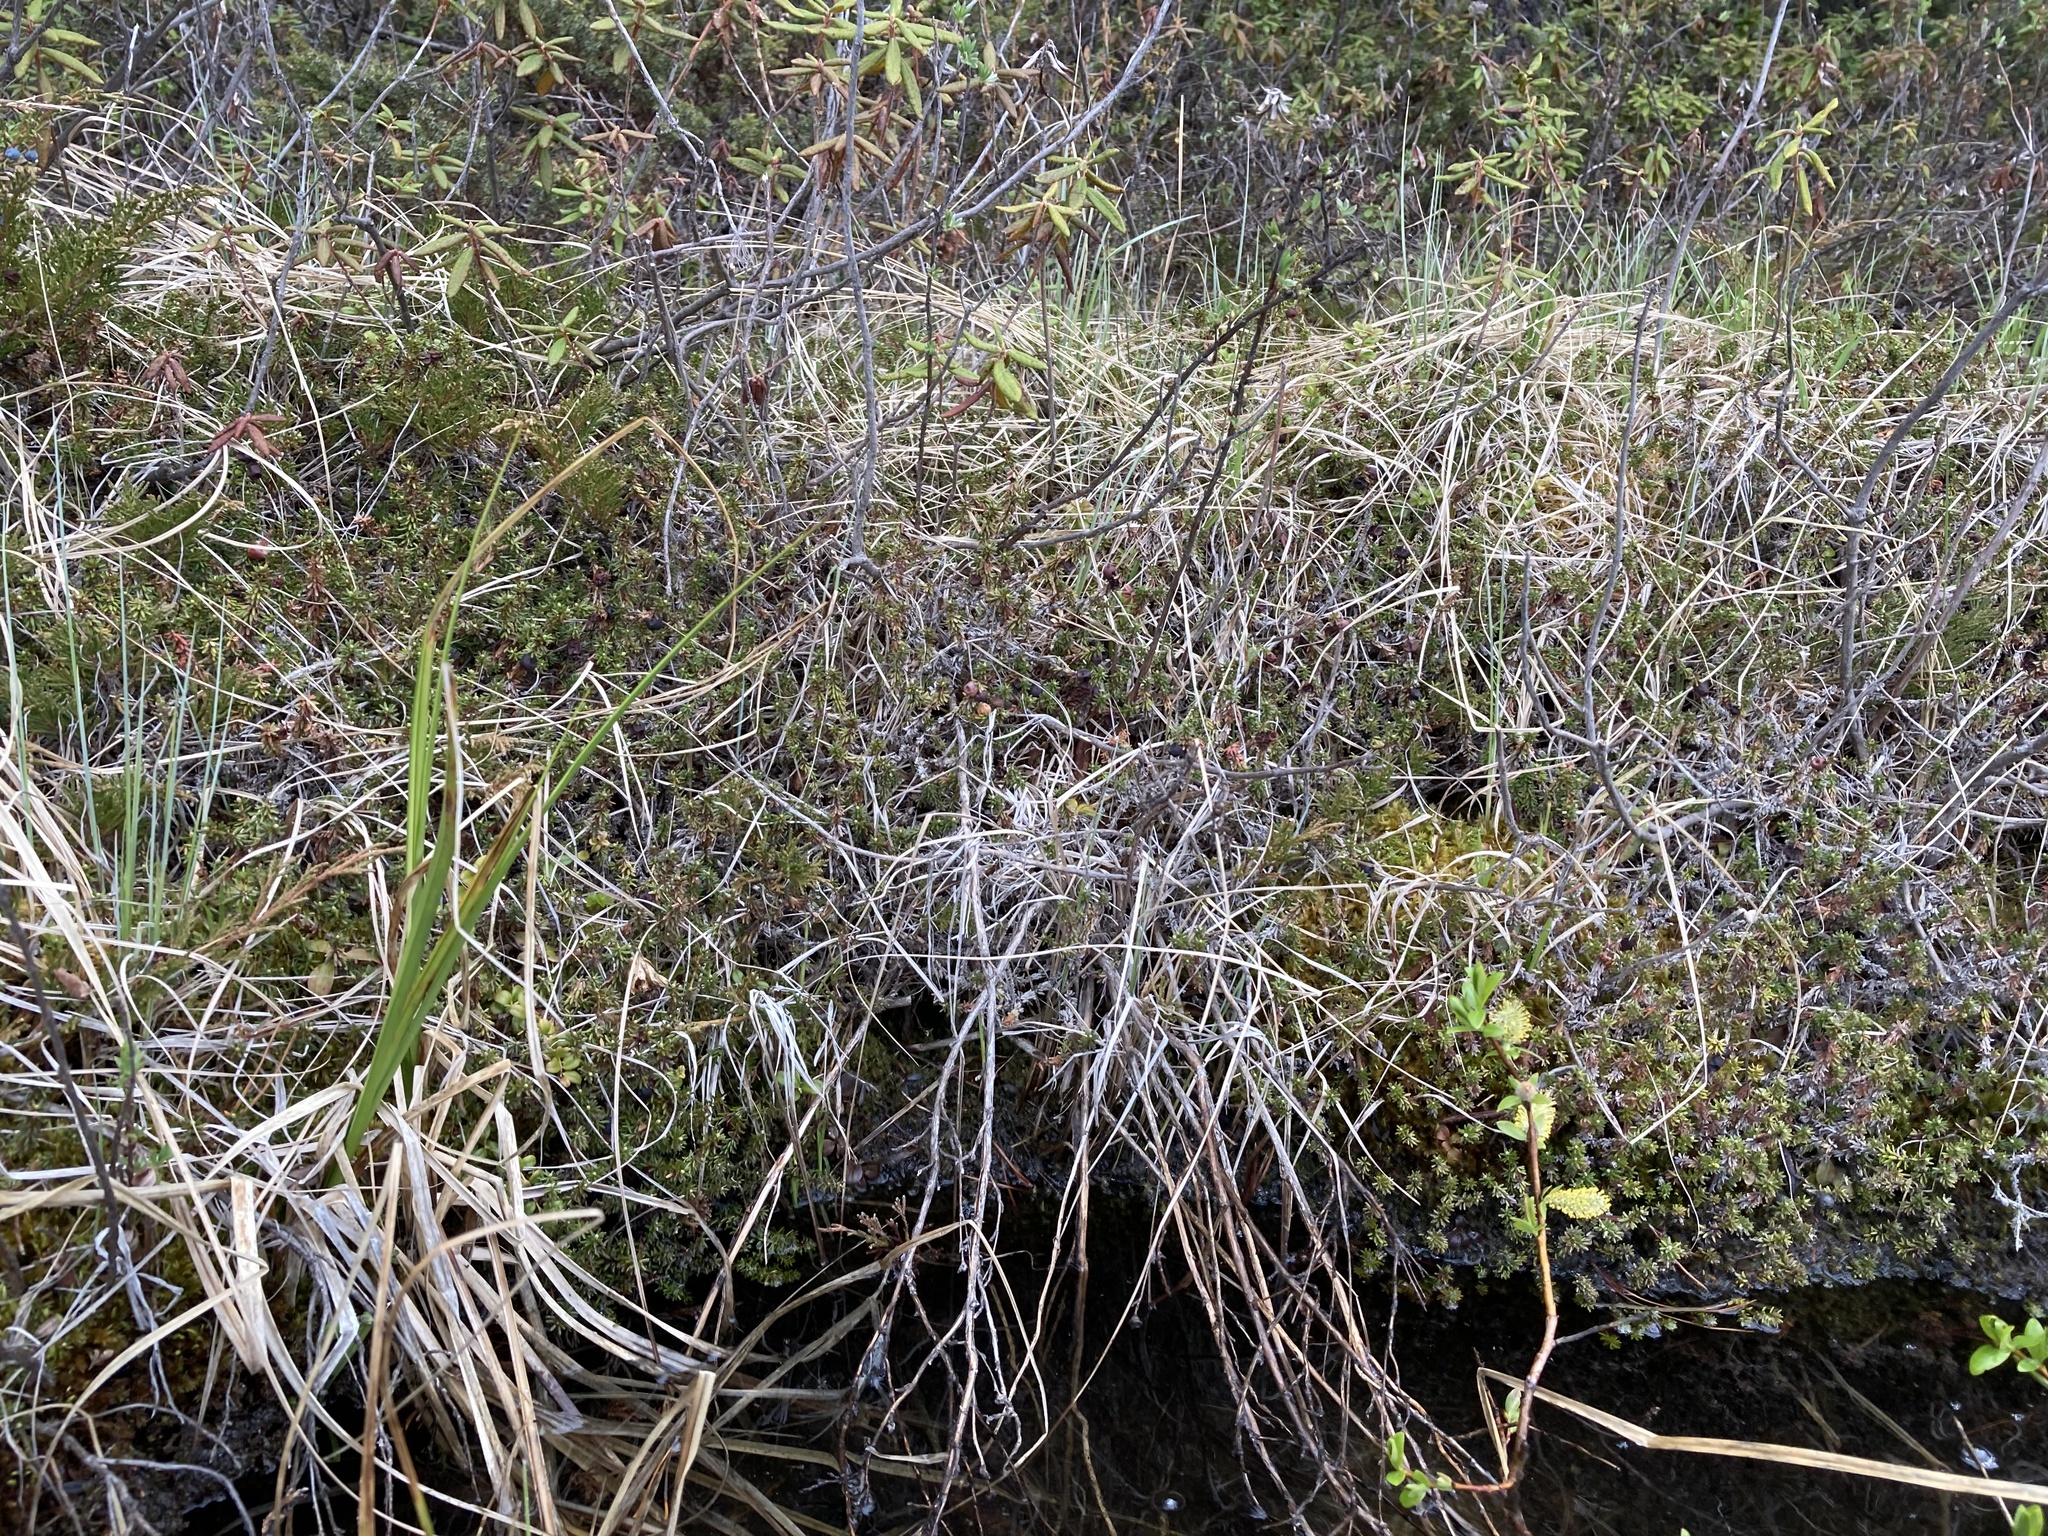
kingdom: Plantae
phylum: Tracheophyta
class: Magnoliopsida
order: Ericales
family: Ericaceae
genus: Empetrum
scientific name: Empetrum nigrum
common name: Black crowberry
